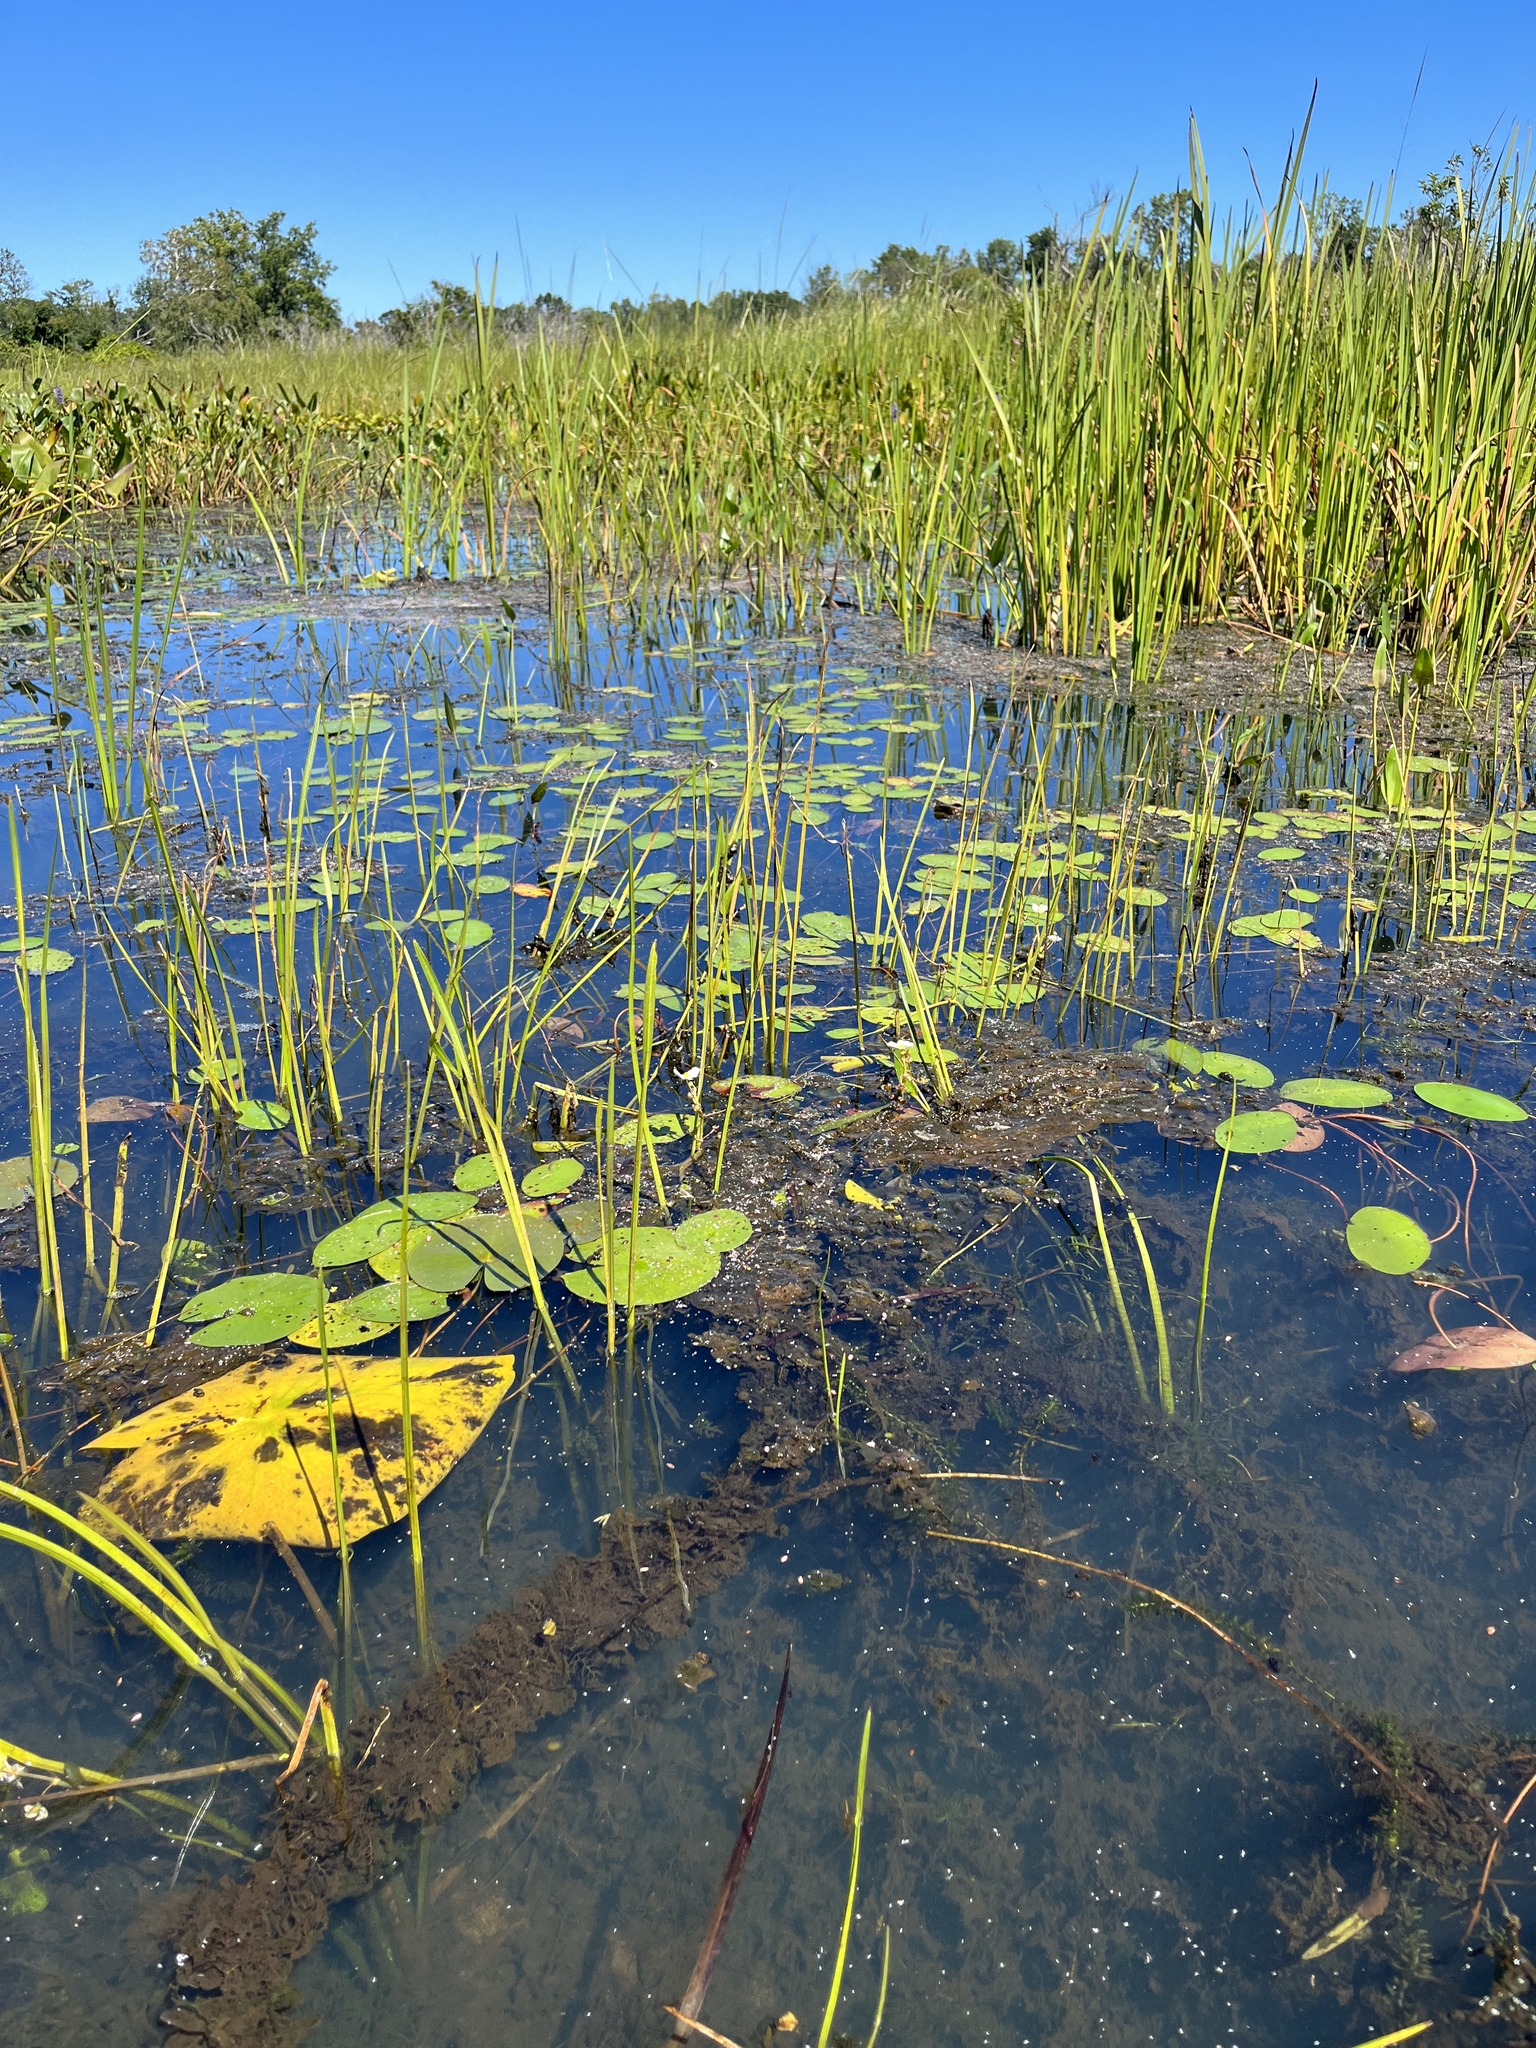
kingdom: Plantae
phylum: Tracheophyta
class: Liliopsida
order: Alismatales
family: Alismataceae
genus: Sagittaria
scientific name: Sagittaria rigida
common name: Canadian arrowhead
